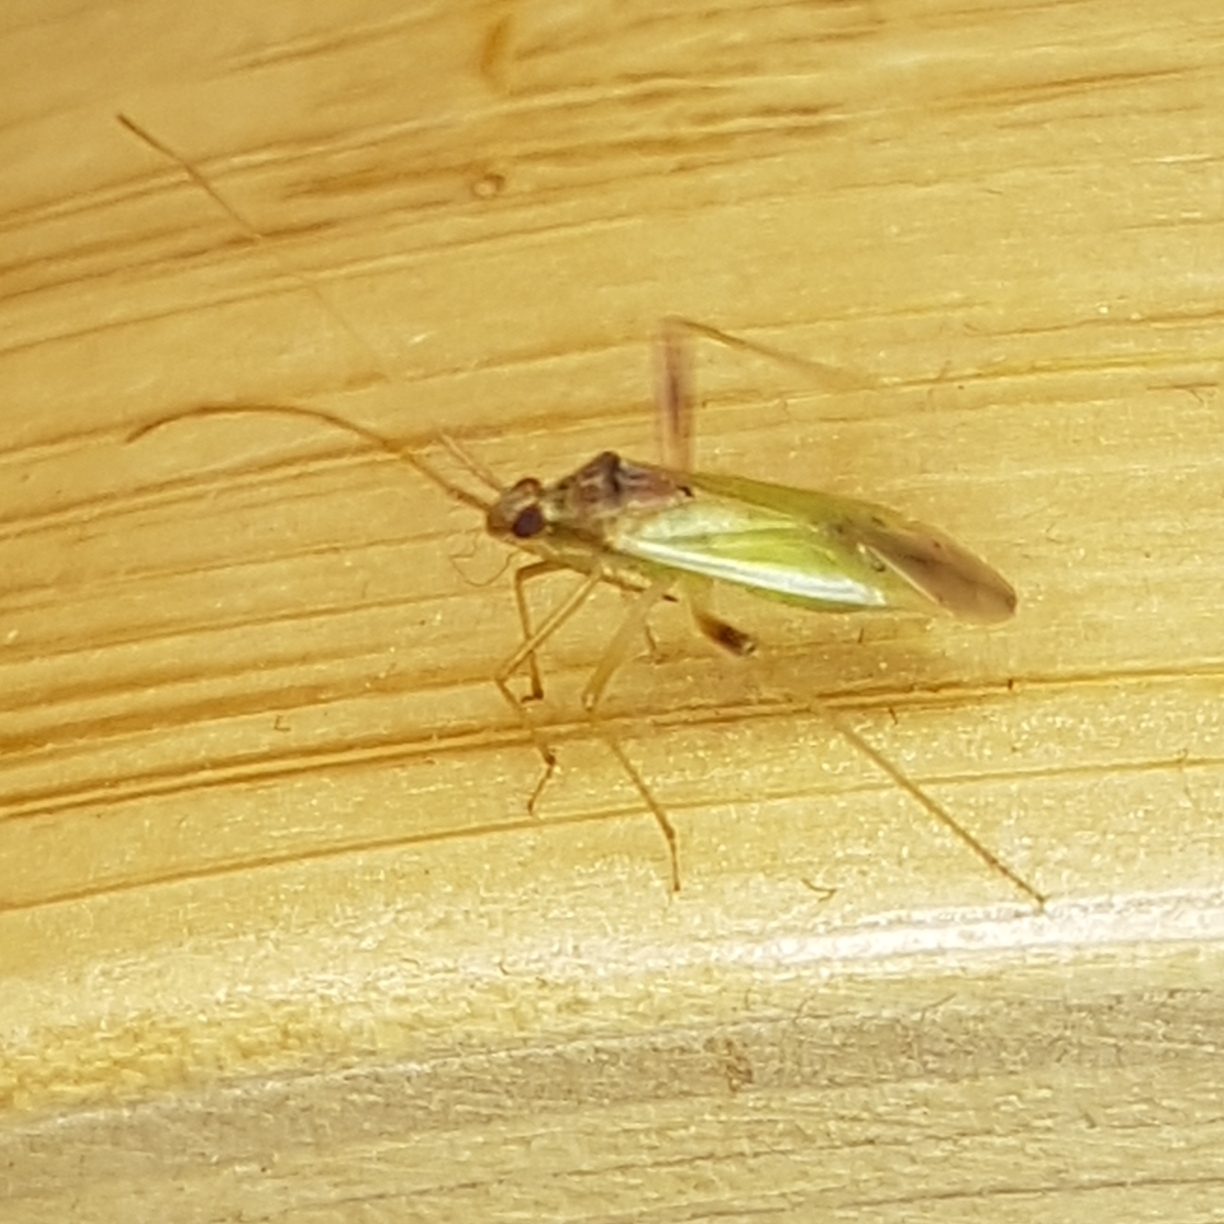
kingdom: Animalia
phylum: Arthropoda
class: Insecta
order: Hemiptera
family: Miridae
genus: Creontiades
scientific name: Creontiades pallidus
